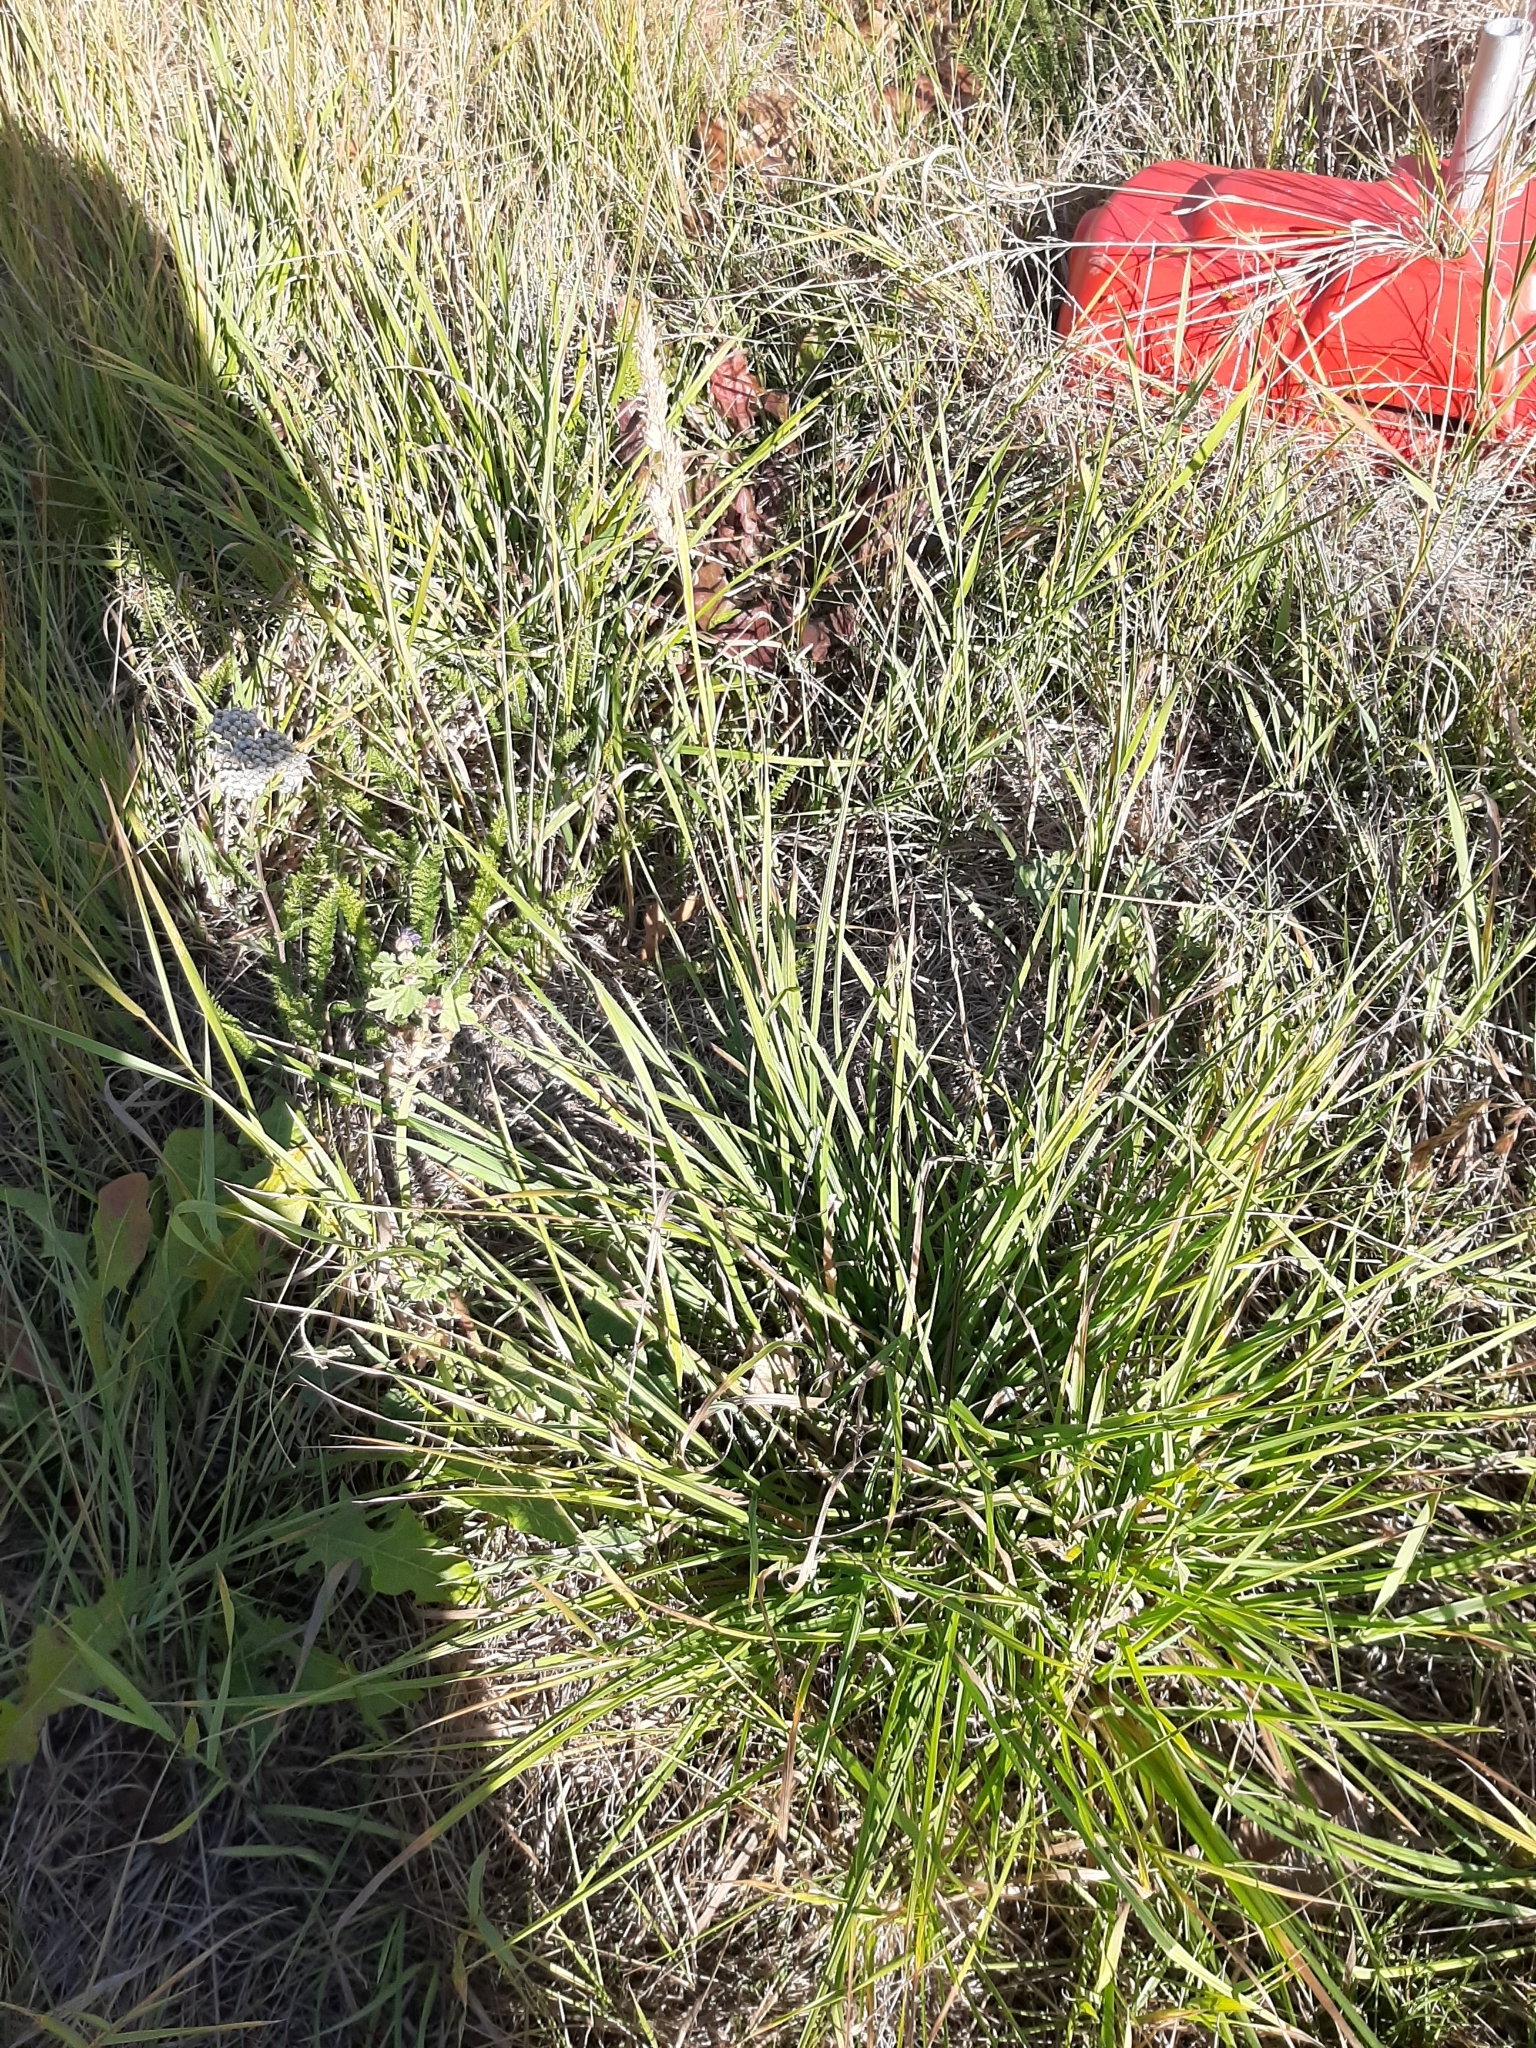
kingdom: Plantae
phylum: Tracheophyta
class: Liliopsida
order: Poales
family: Poaceae
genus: Dactylis
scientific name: Dactylis glomerata
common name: Orchardgrass
